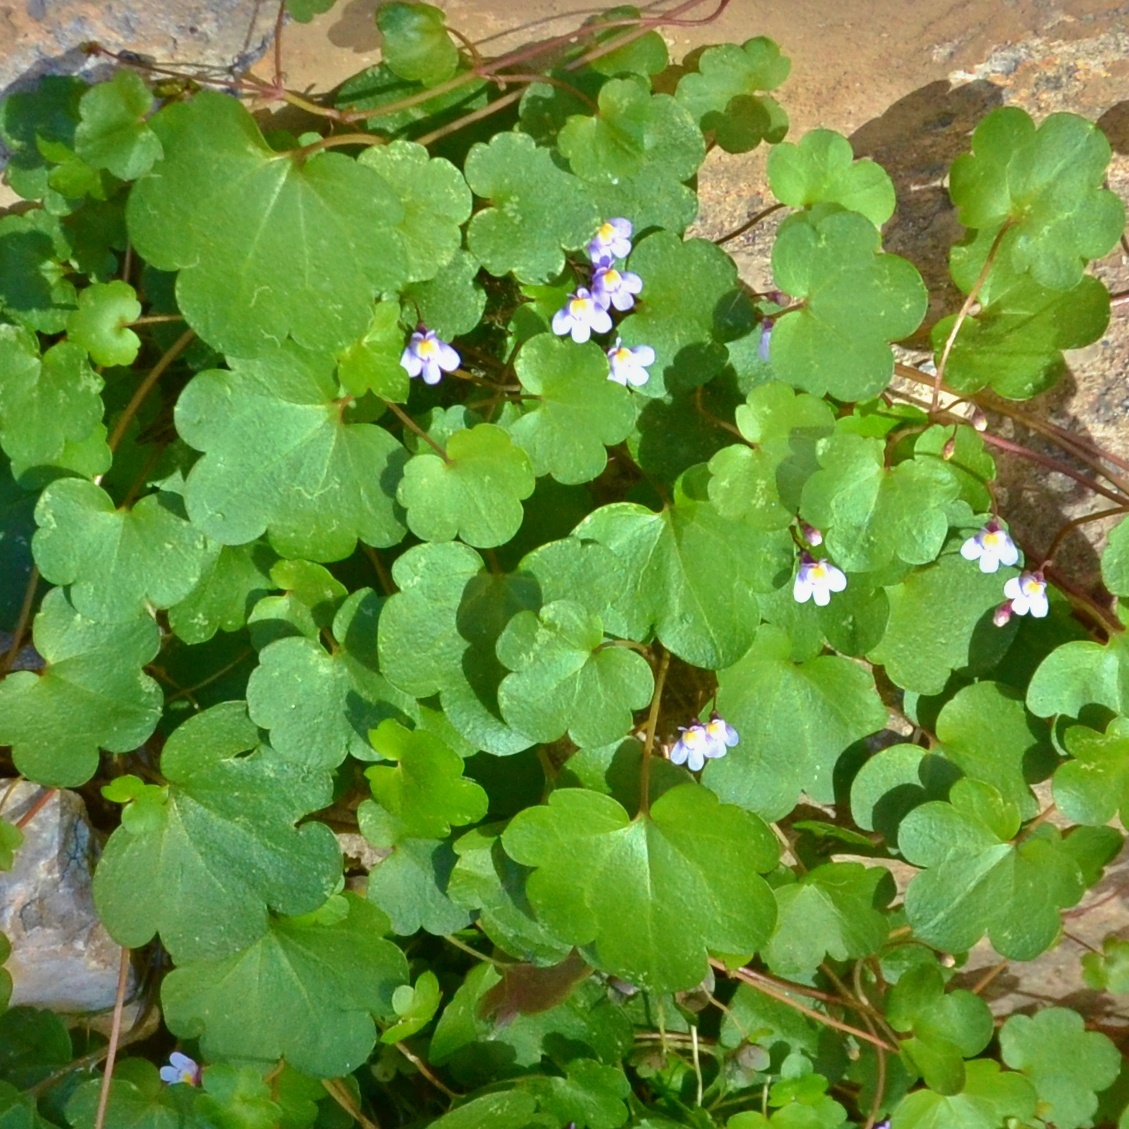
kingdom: Plantae
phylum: Tracheophyta
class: Magnoliopsida
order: Lamiales
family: Plantaginaceae
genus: Cymbalaria
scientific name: Cymbalaria muralis
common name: Ivy-leaved toadflax
